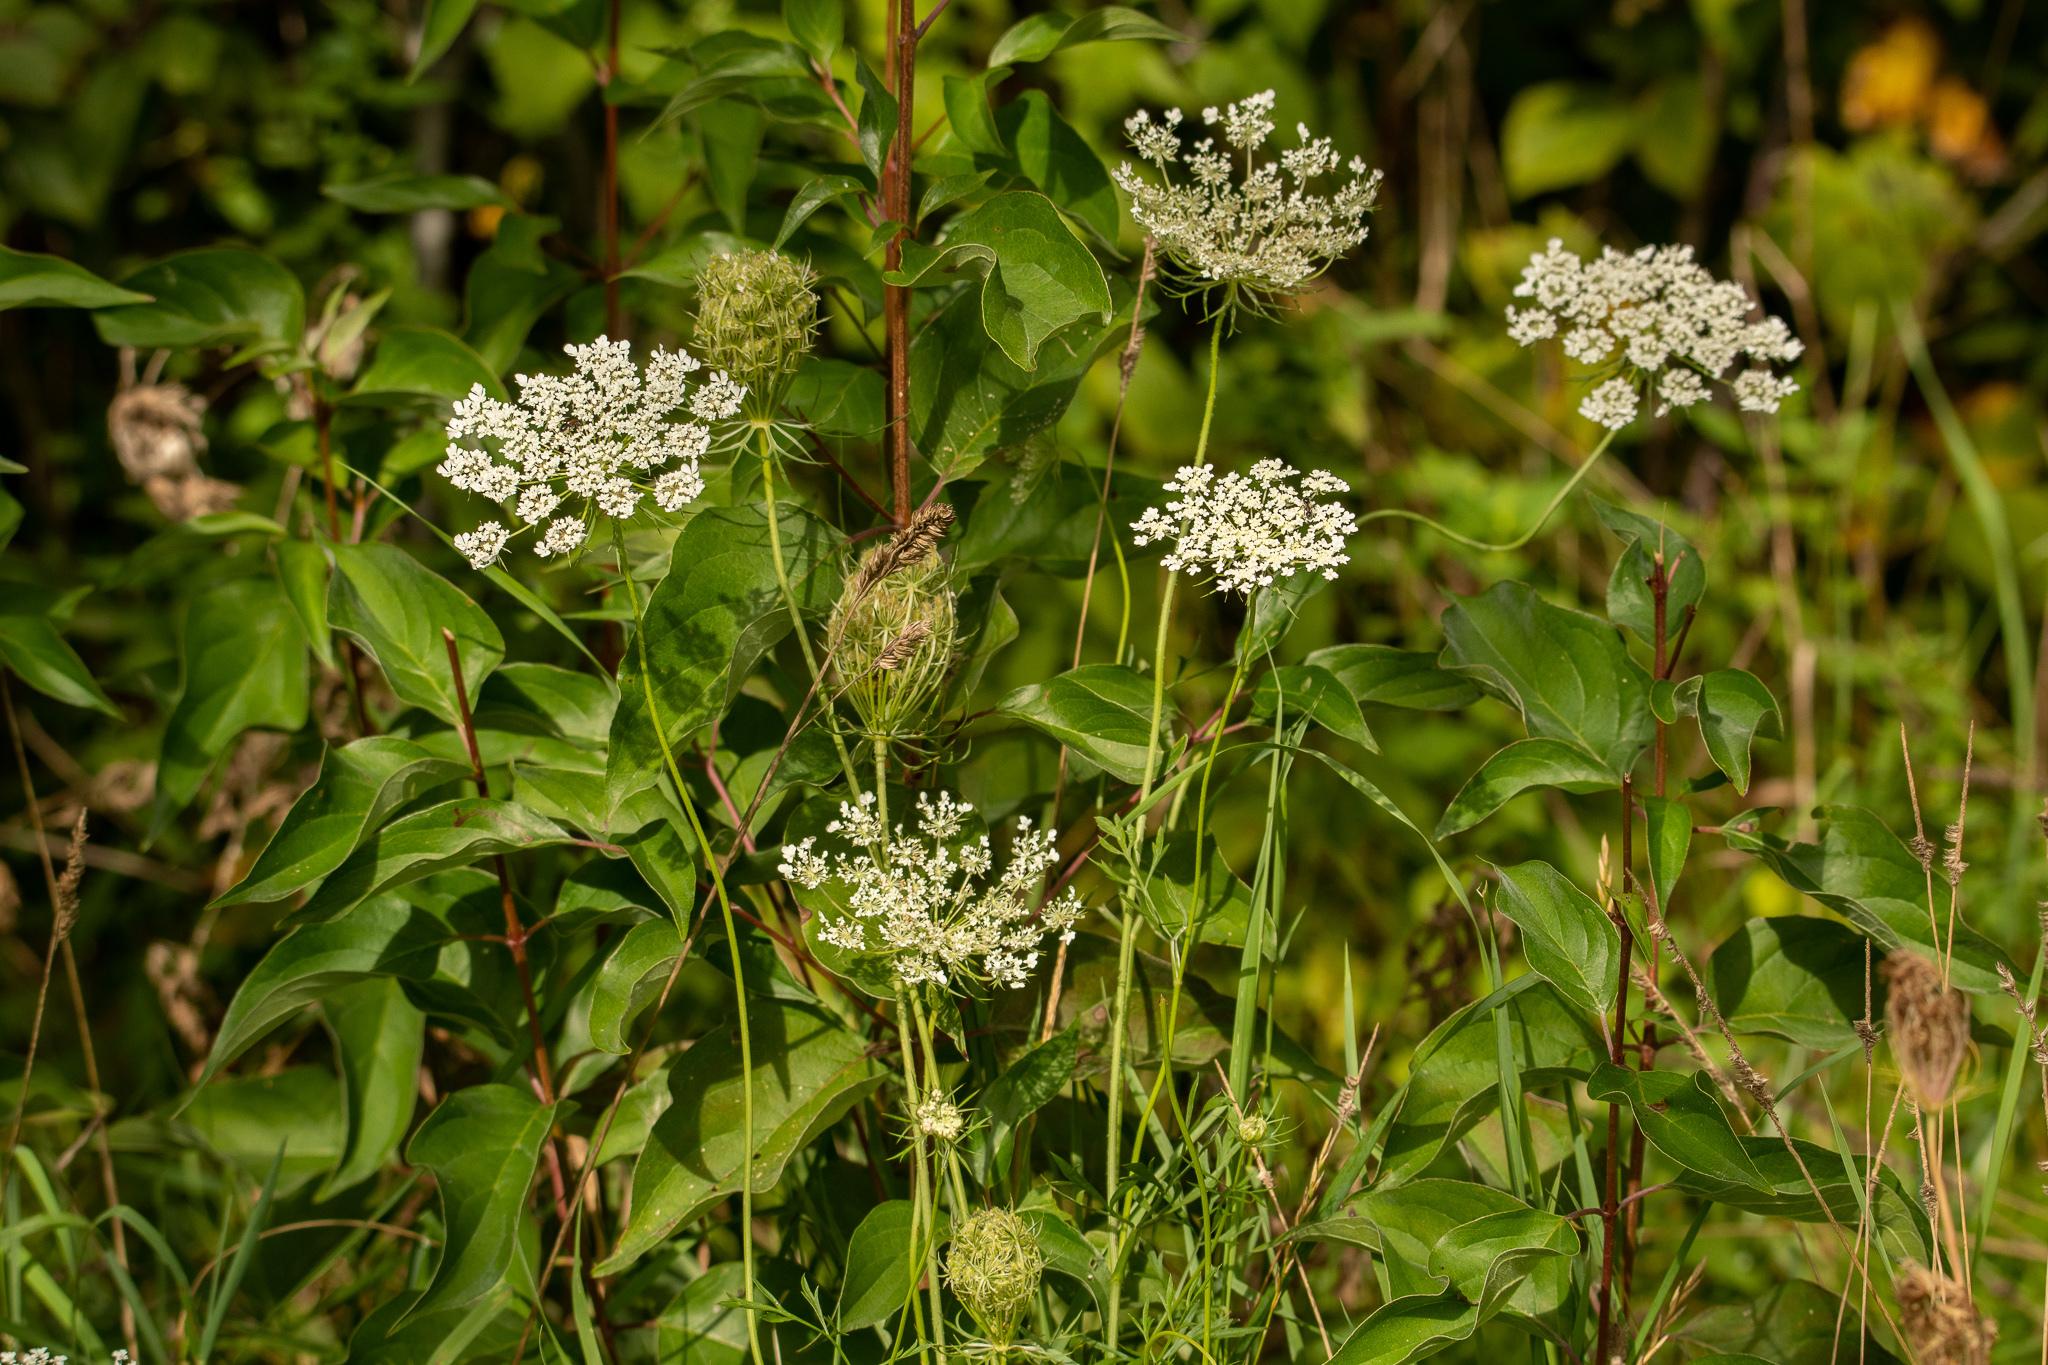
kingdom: Plantae
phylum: Tracheophyta
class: Magnoliopsida
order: Apiales
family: Apiaceae
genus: Daucus
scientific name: Daucus carota
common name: Wild carrot
